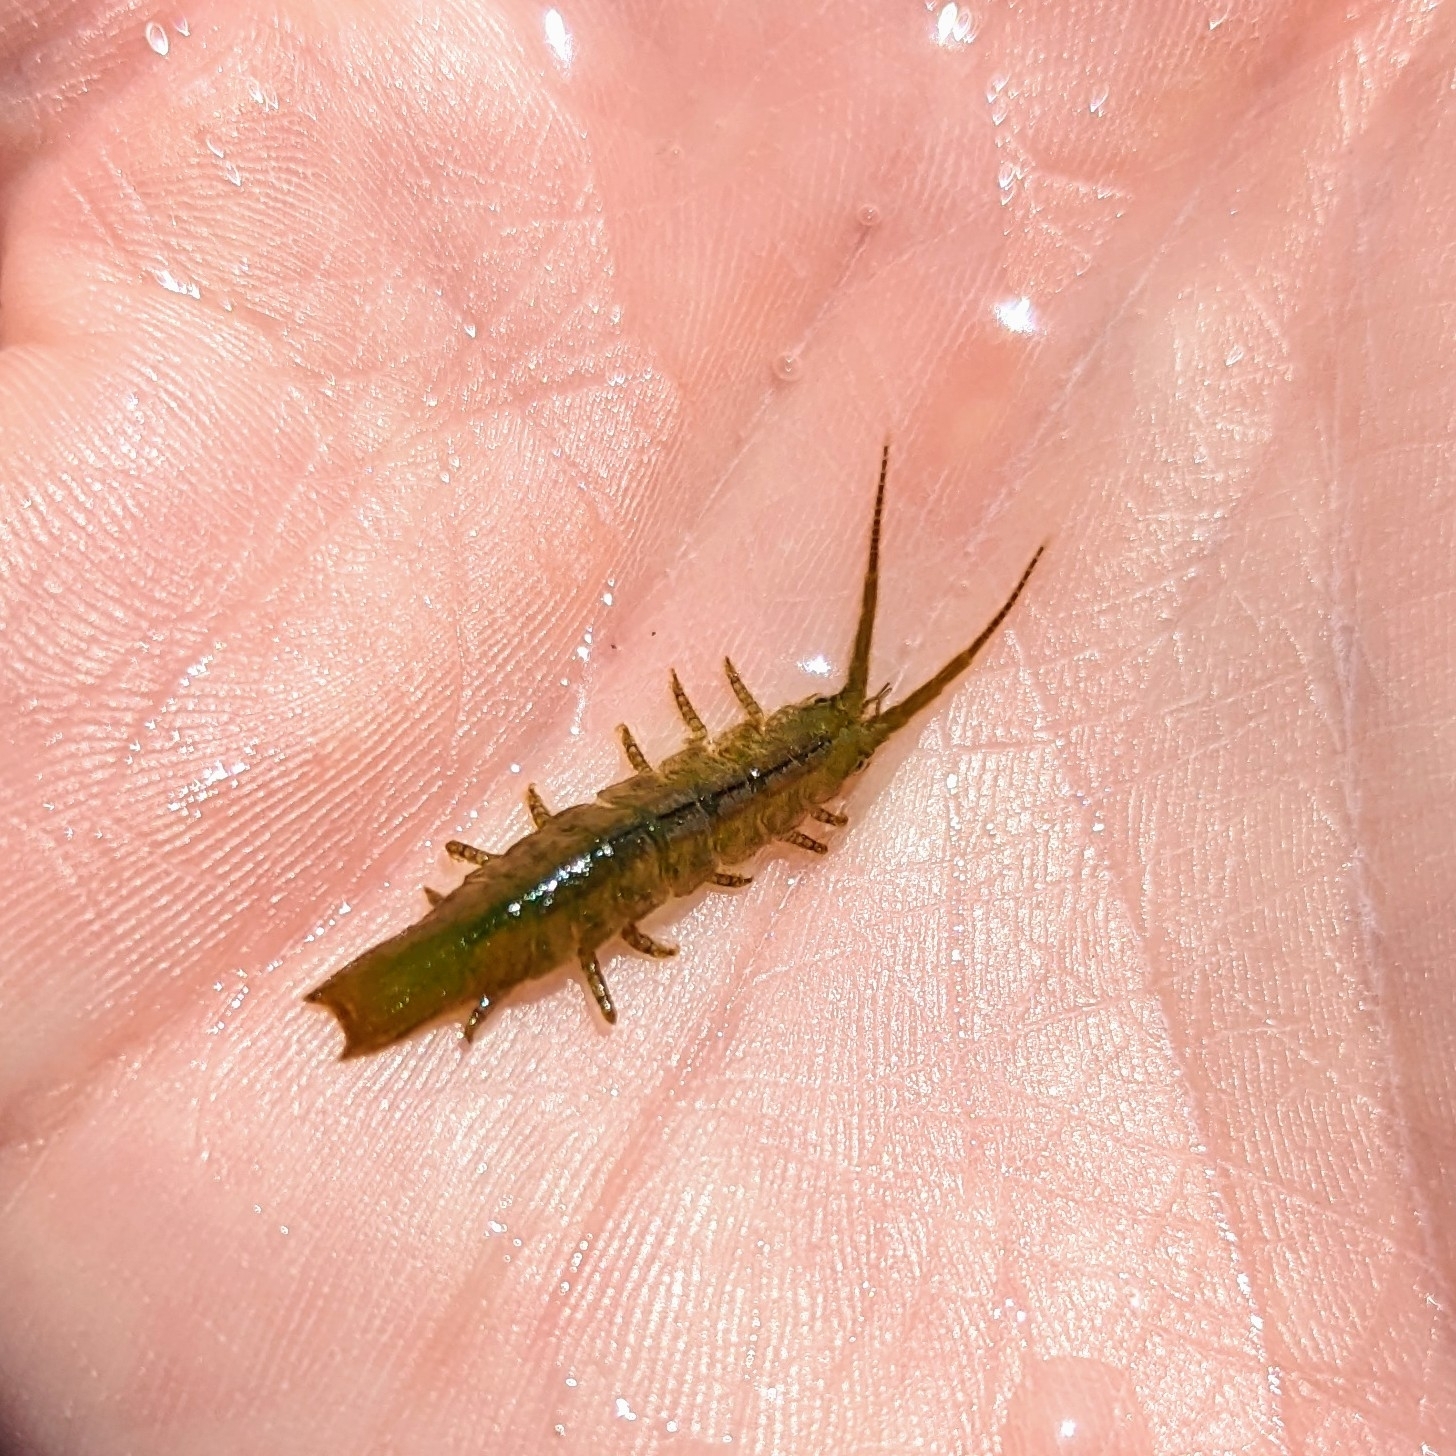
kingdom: Animalia
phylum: Arthropoda
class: Malacostraca
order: Isopoda
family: Idoteidae
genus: Pentidotea
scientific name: Pentidotea resecata
